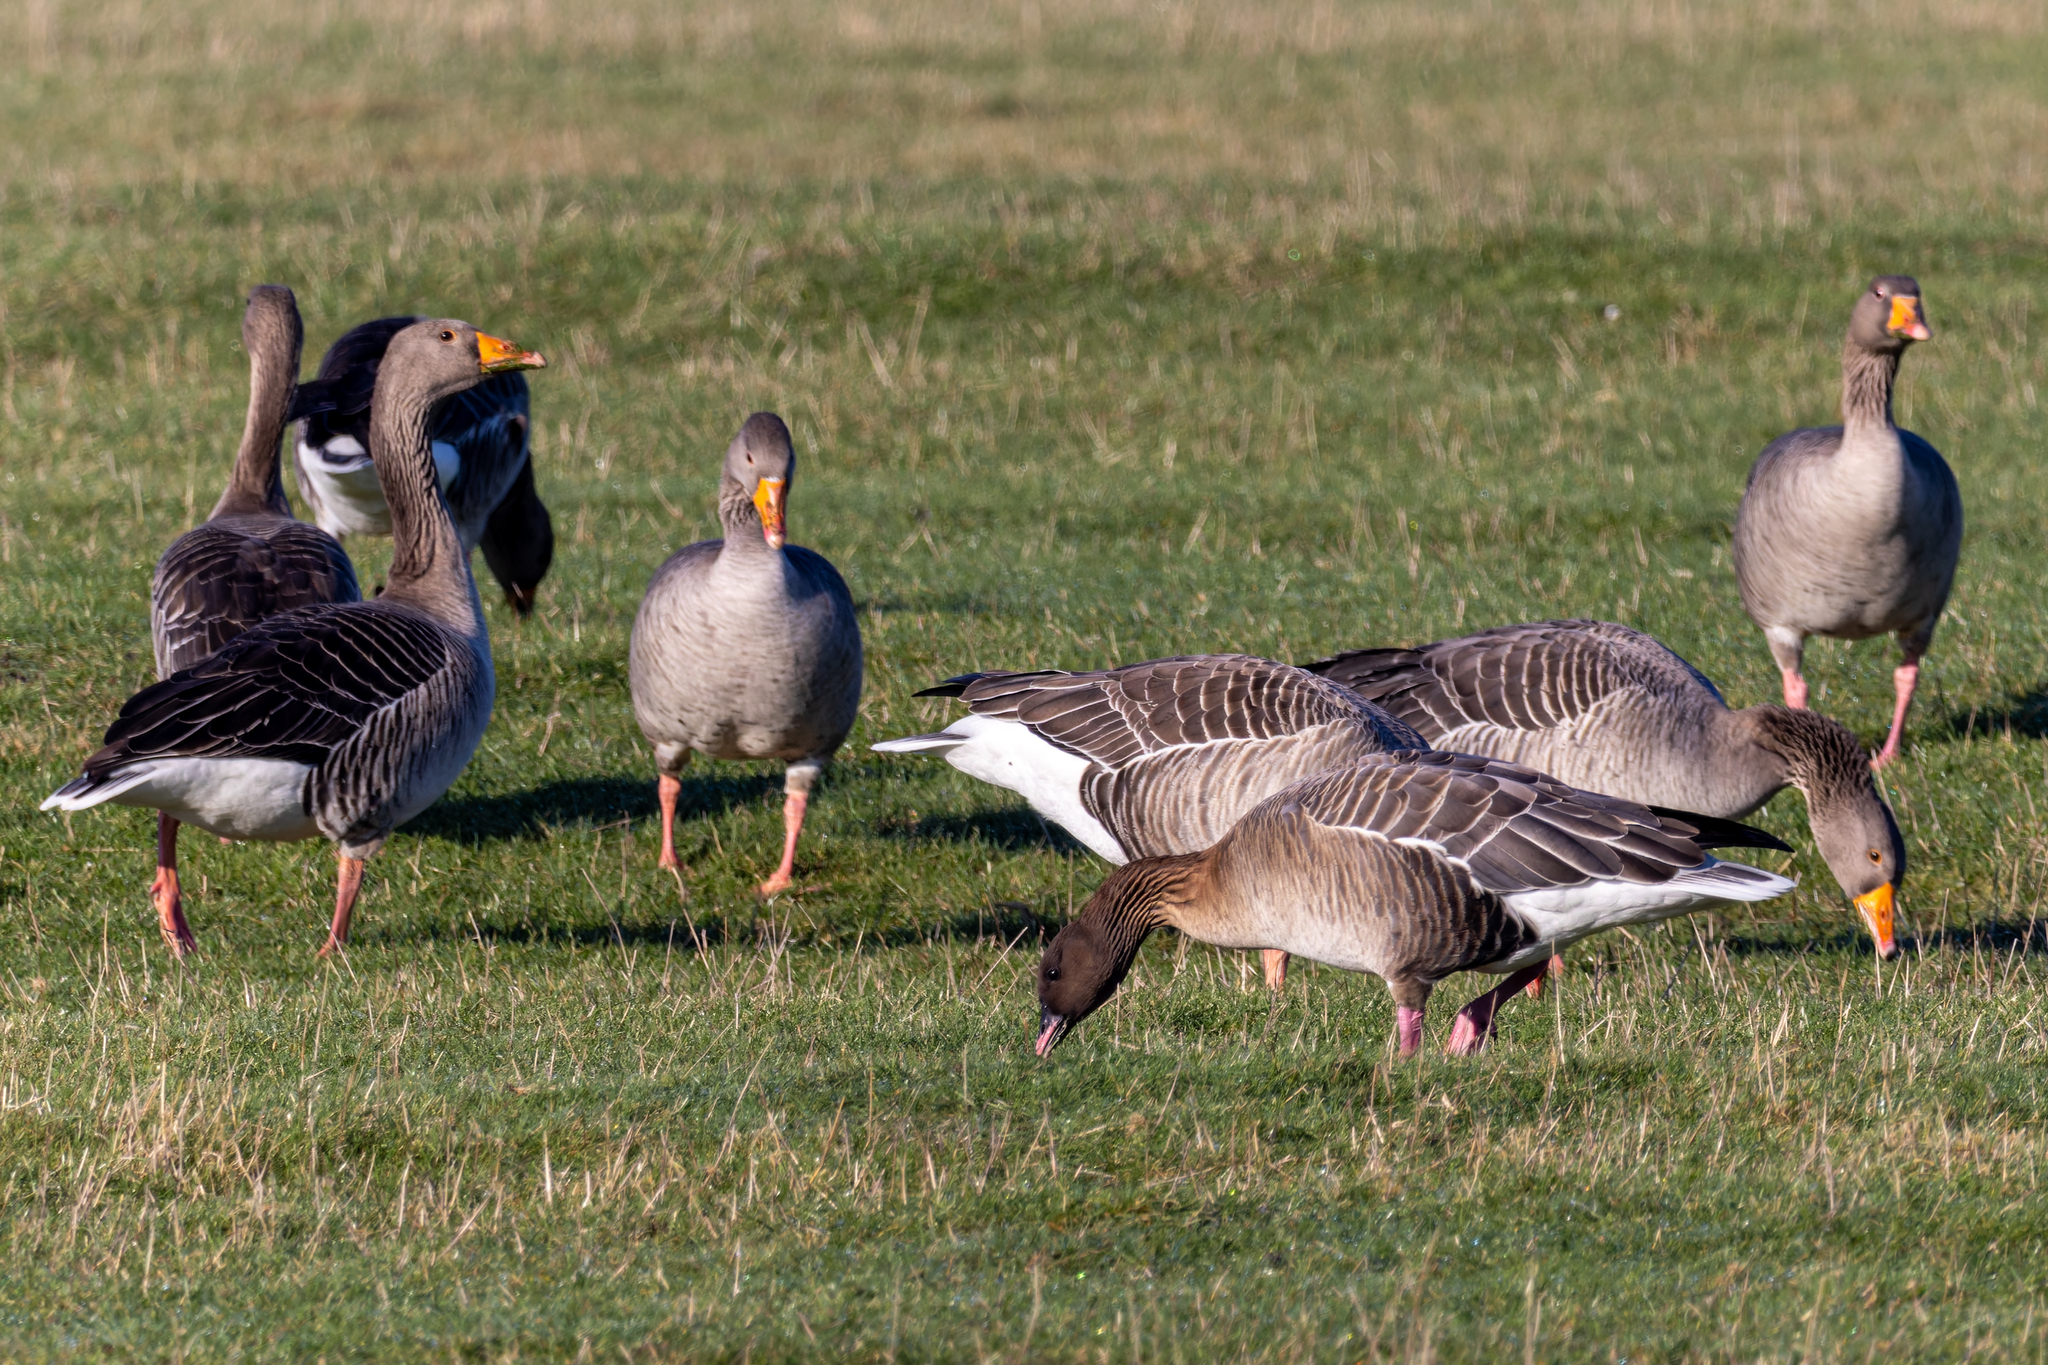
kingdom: Animalia
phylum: Chordata
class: Aves
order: Anseriformes
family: Anatidae
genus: Anser
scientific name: Anser anser
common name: Greylag goose
